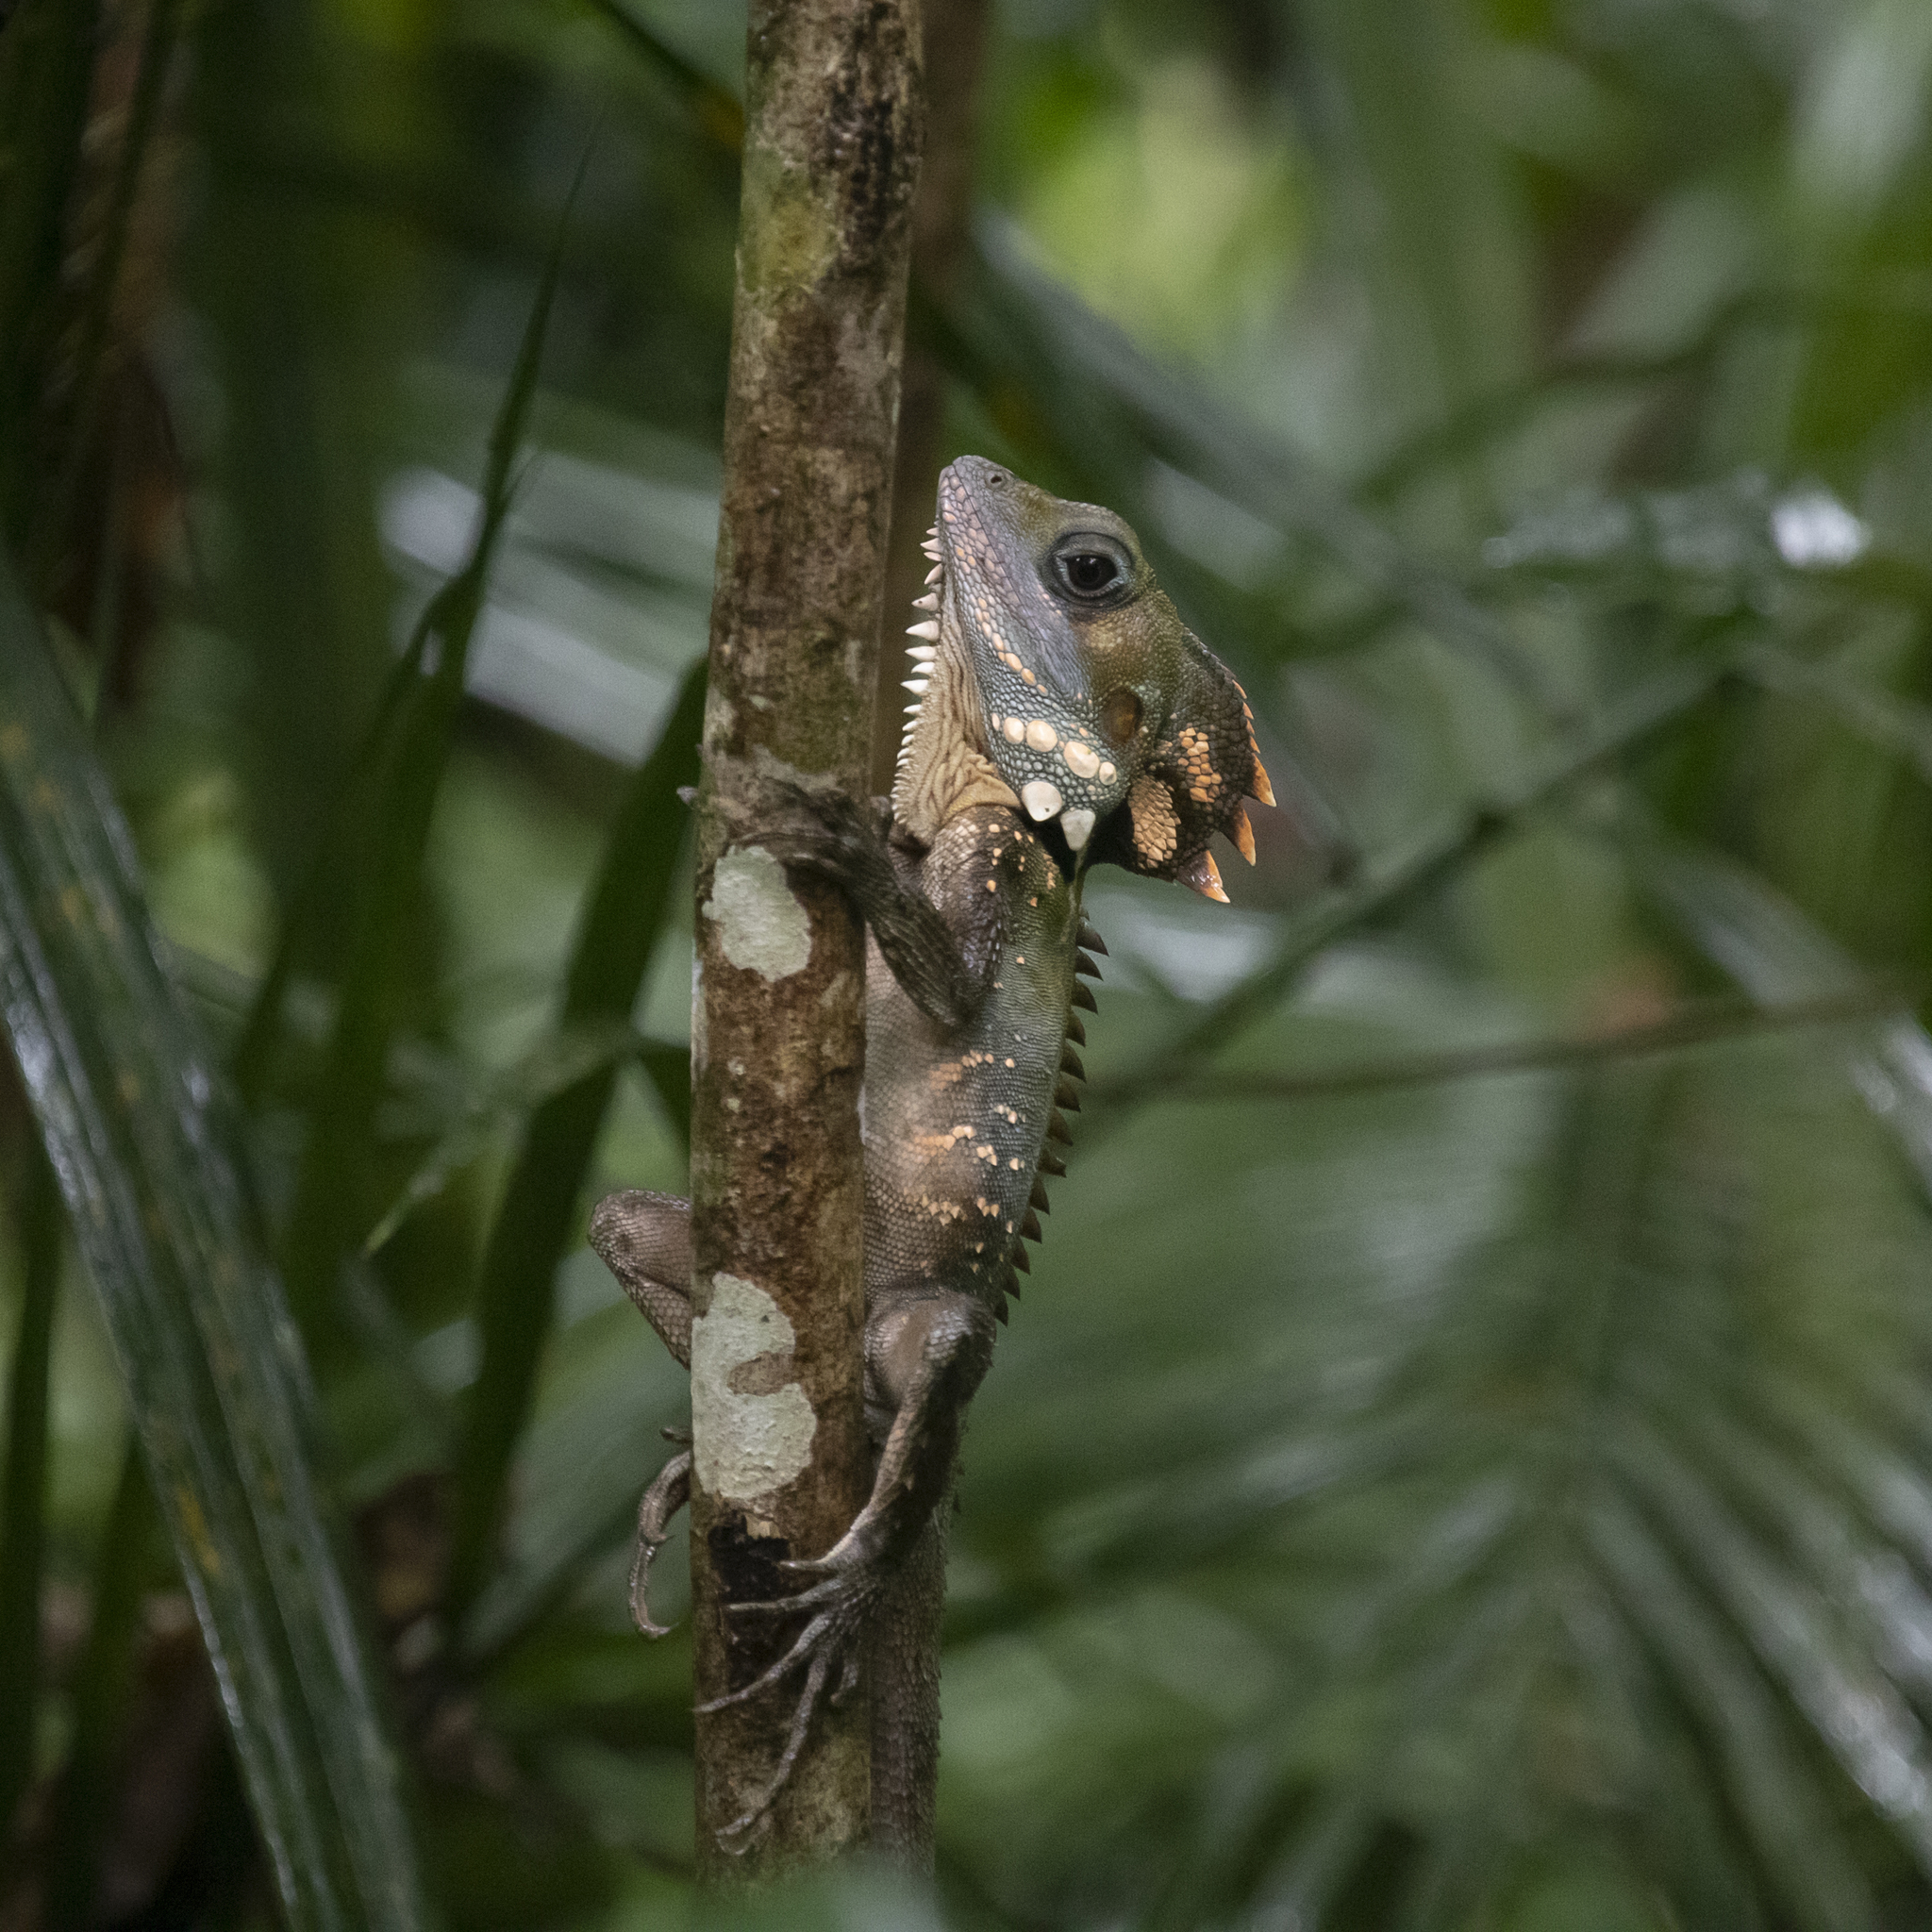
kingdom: Animalia
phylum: Chordata
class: Squamata
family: Agamidae
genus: Lophosaurus
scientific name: Lophosaurus boydii
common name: Boyd's forest dragon
